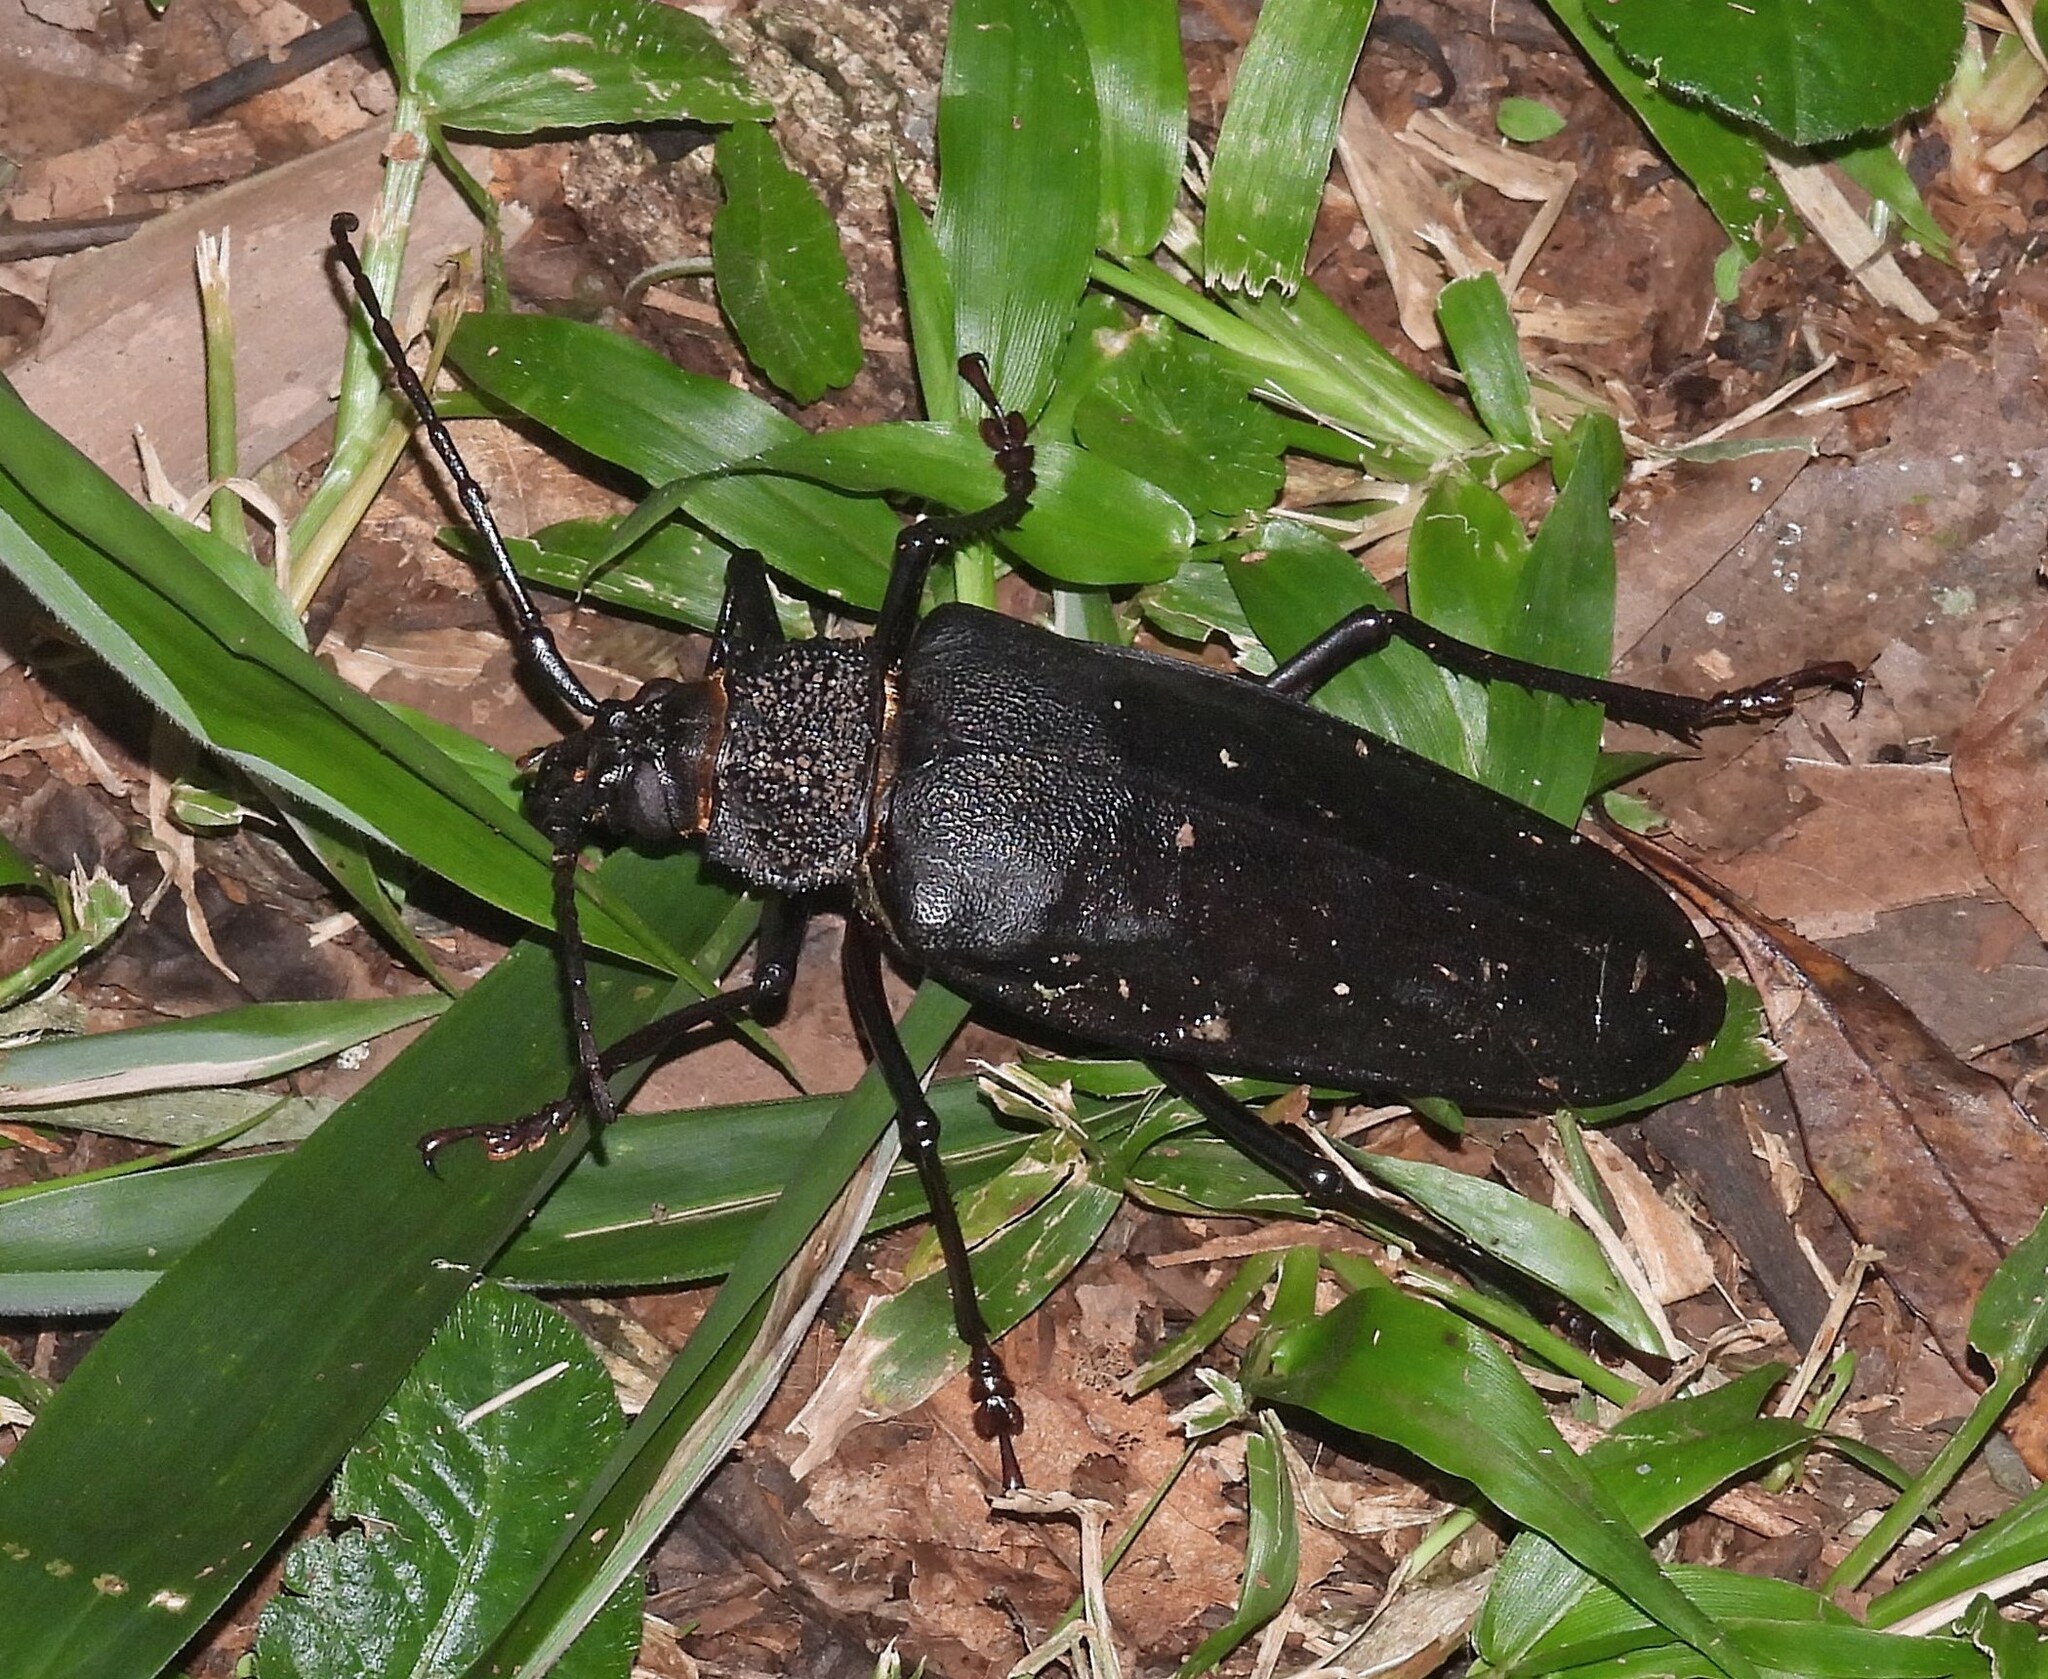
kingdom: Animalia
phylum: Arthropoda
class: Insecta
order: Coleoptera
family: Cerambycidae
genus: Ctenoscelis
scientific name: Ctenoscelis acanthopus
